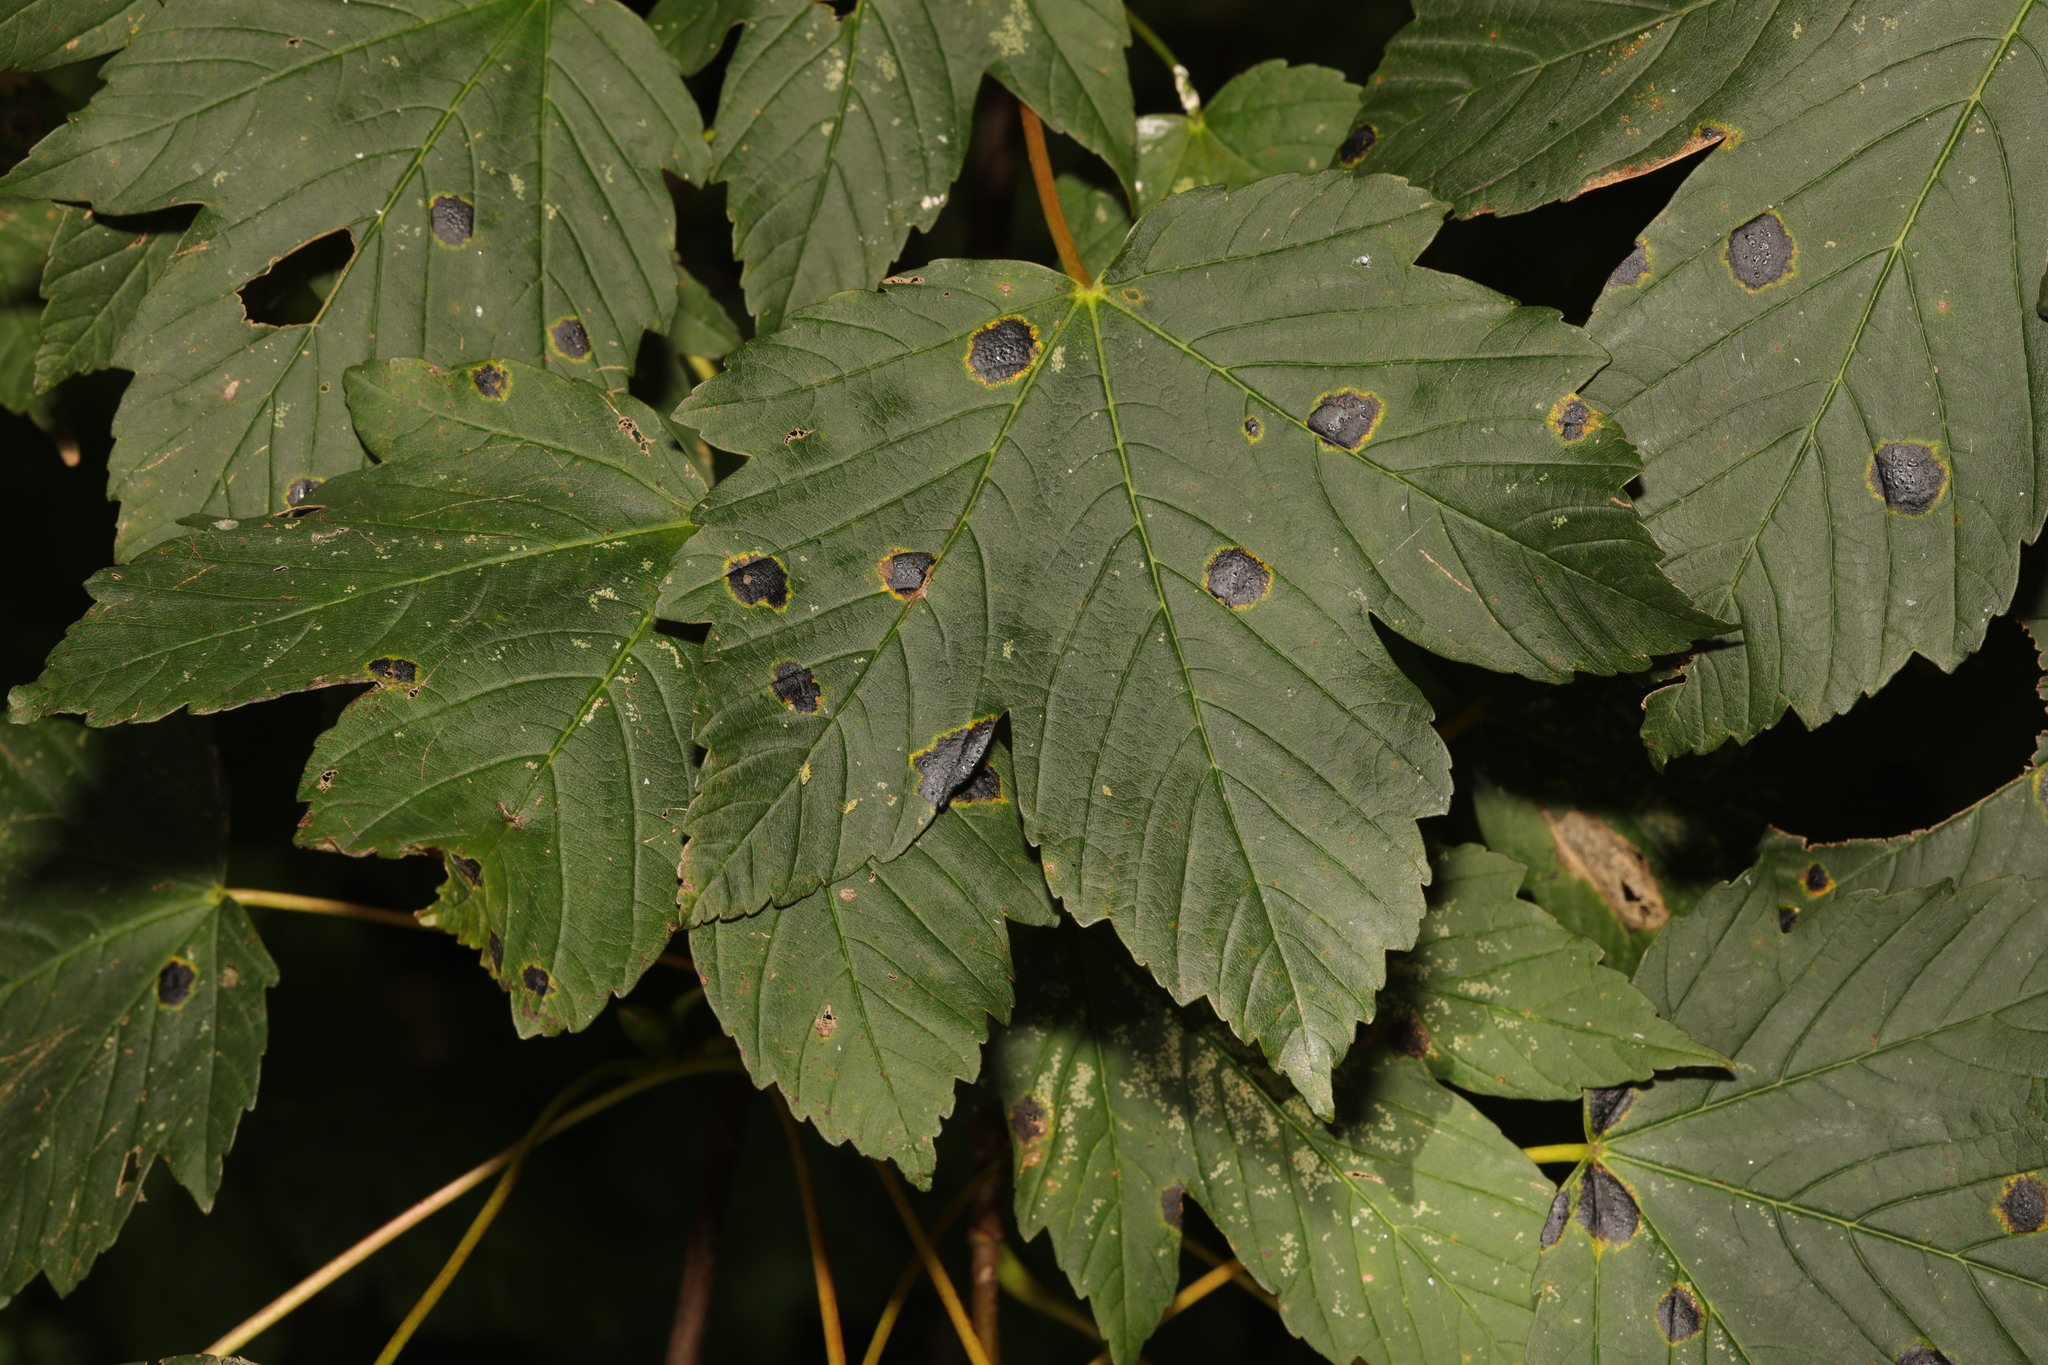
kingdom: Fungi
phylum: Ascomycota
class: Leotiomycetes
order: Rhytismatales
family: Rhytismataceae
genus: Rhytisma
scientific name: Rhytisma acerinum
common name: European tar spot
